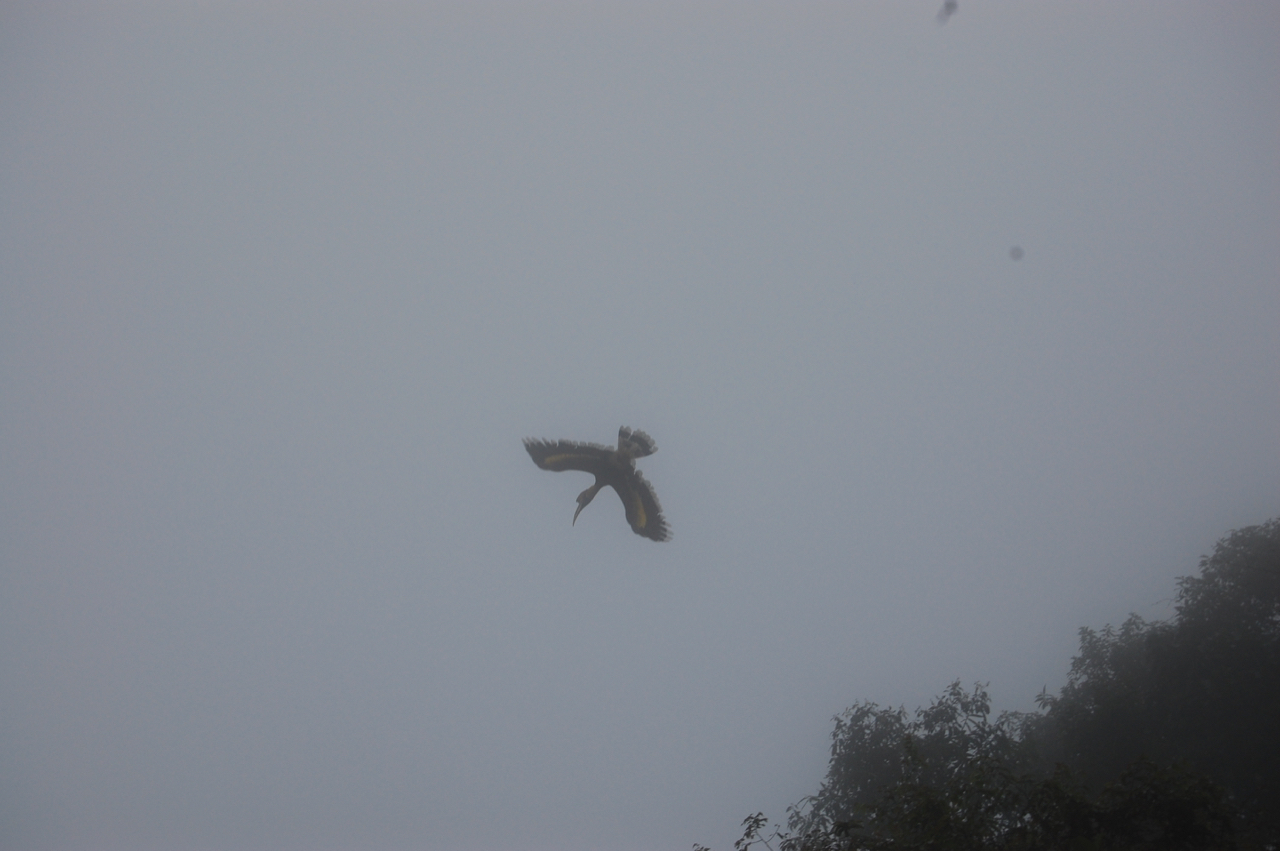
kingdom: Animalia
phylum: Chordata
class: Aves
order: Bucerotiformes
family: Bucerotidae
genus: Buceros
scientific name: Buceros bicornis
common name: Great hornbill
